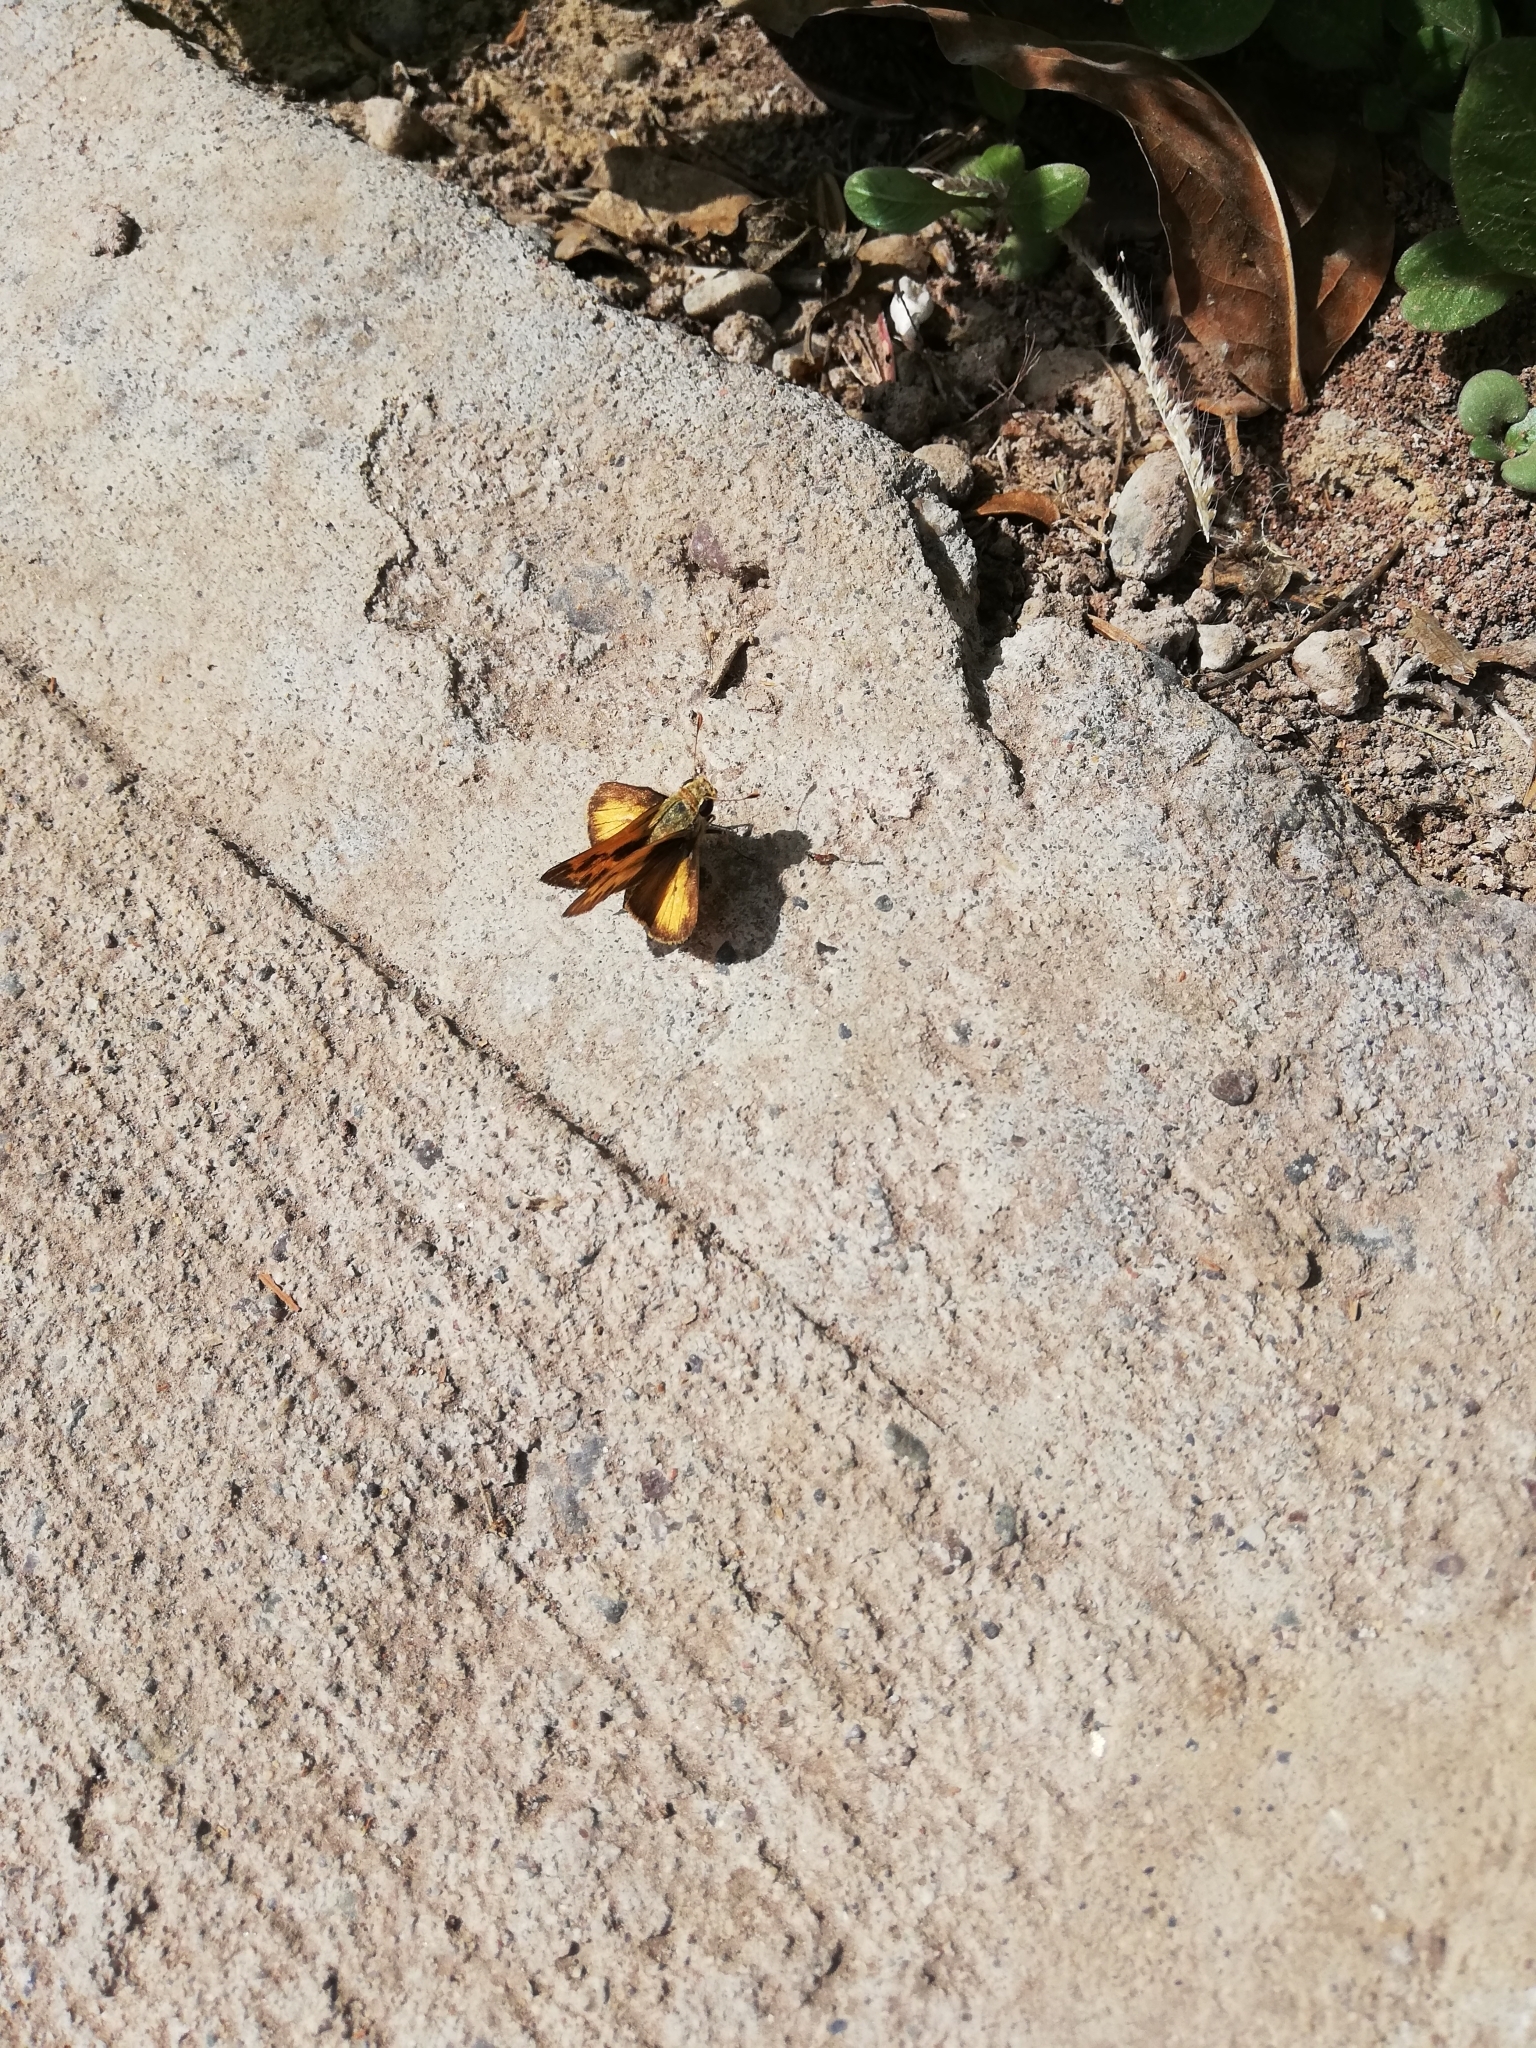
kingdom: Animalia
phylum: Arthropoda
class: Insecta
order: Lepidoptera
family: Hesperiidae
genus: Polites
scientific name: Polites vibex
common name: Whirlabout
